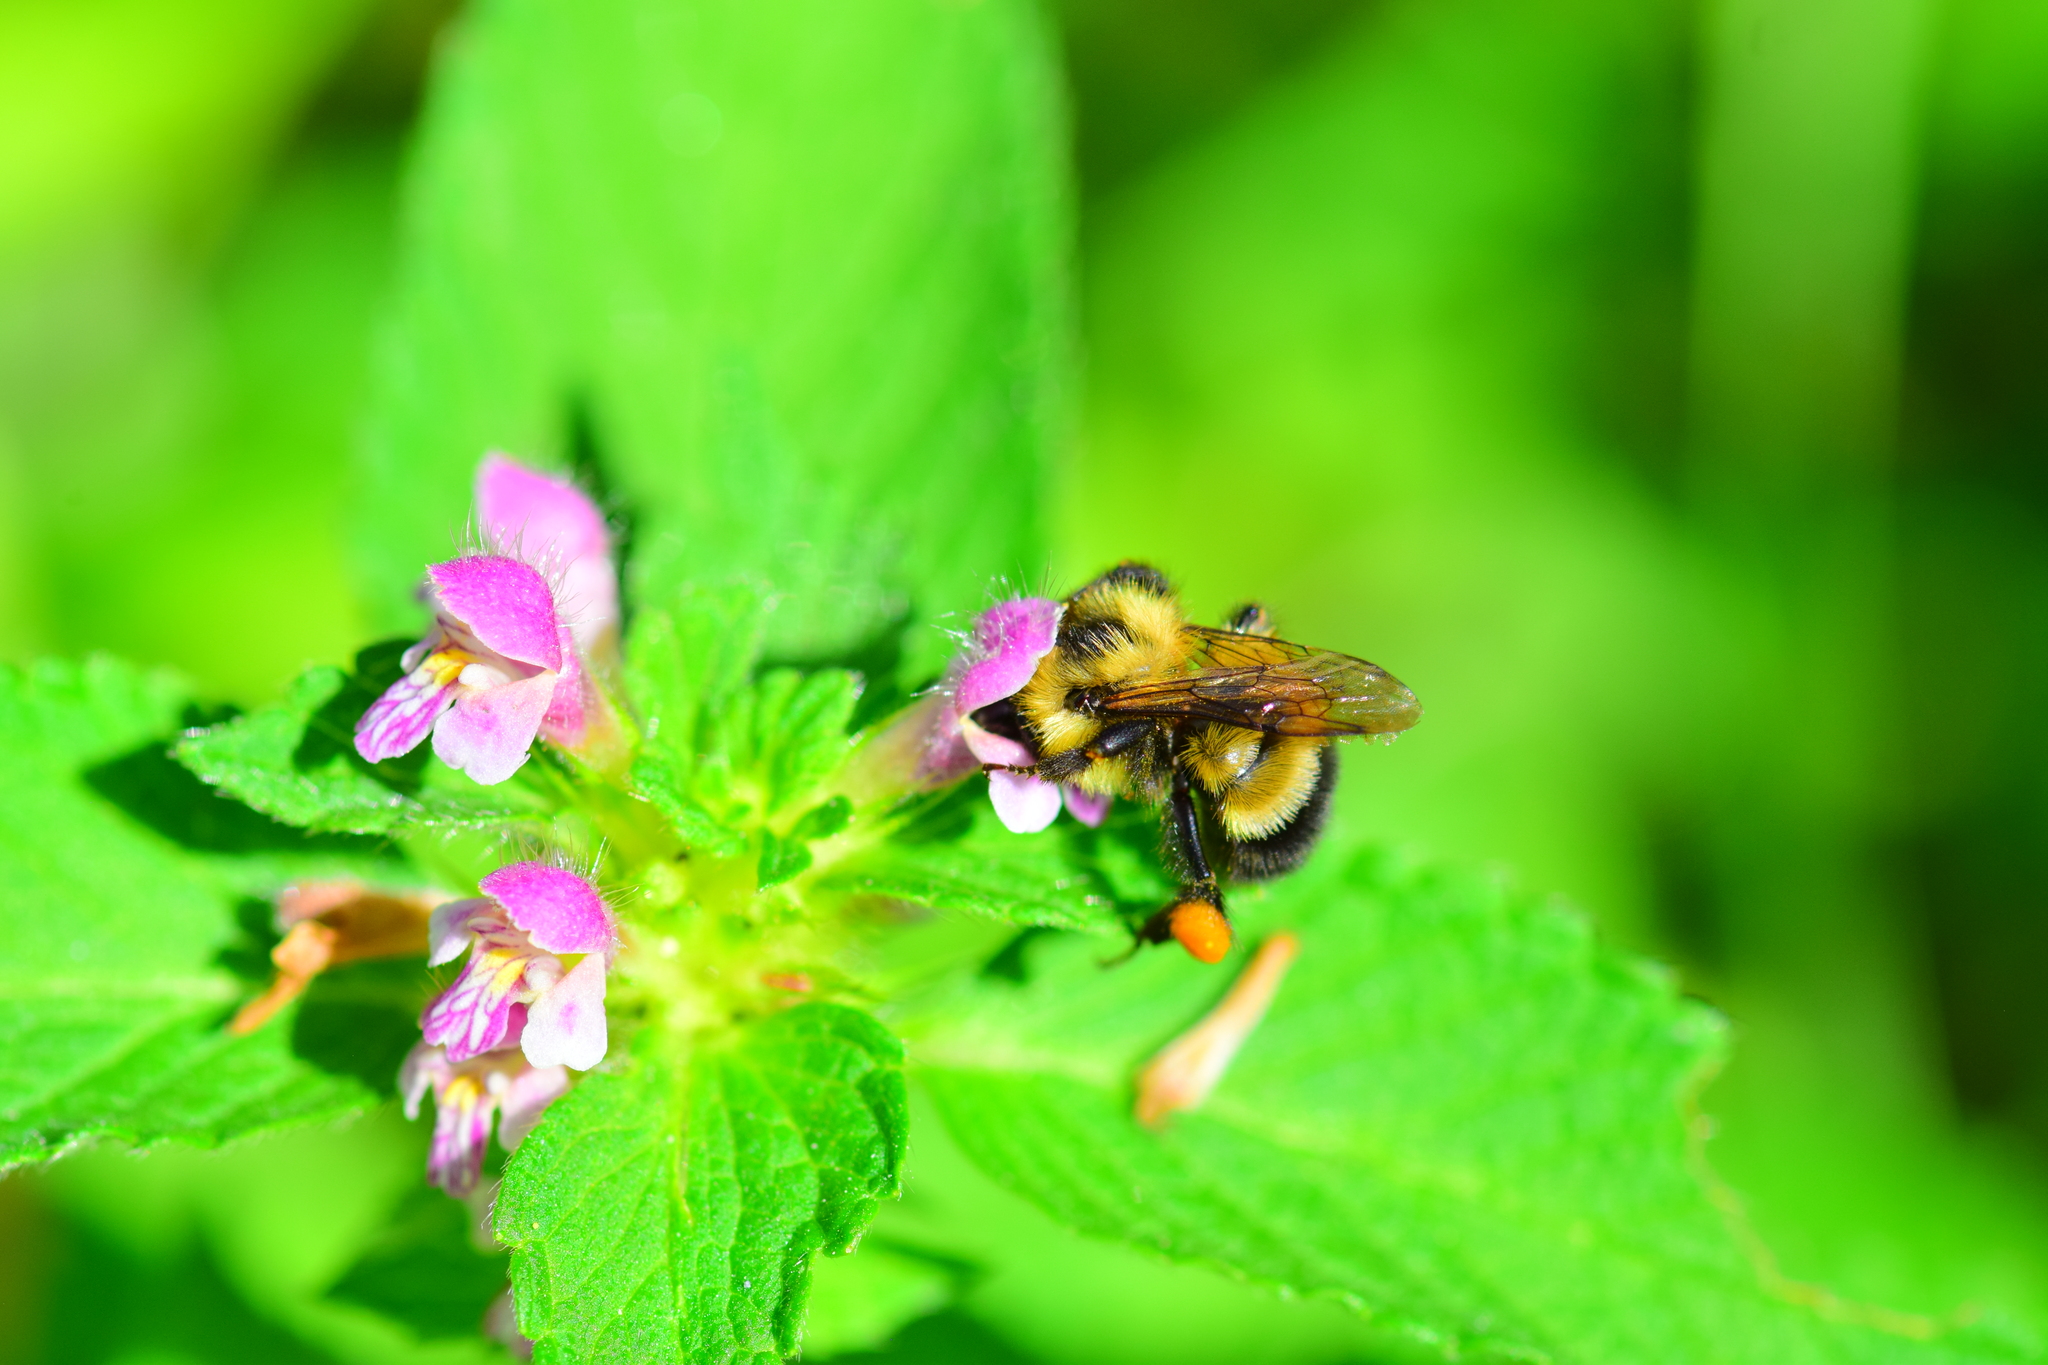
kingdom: Animalia
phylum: Arthropoda
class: Insecta
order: Hymenoptera
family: Apidae
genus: Bombus
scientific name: Bombus vagans
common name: Half-black bumble bee
